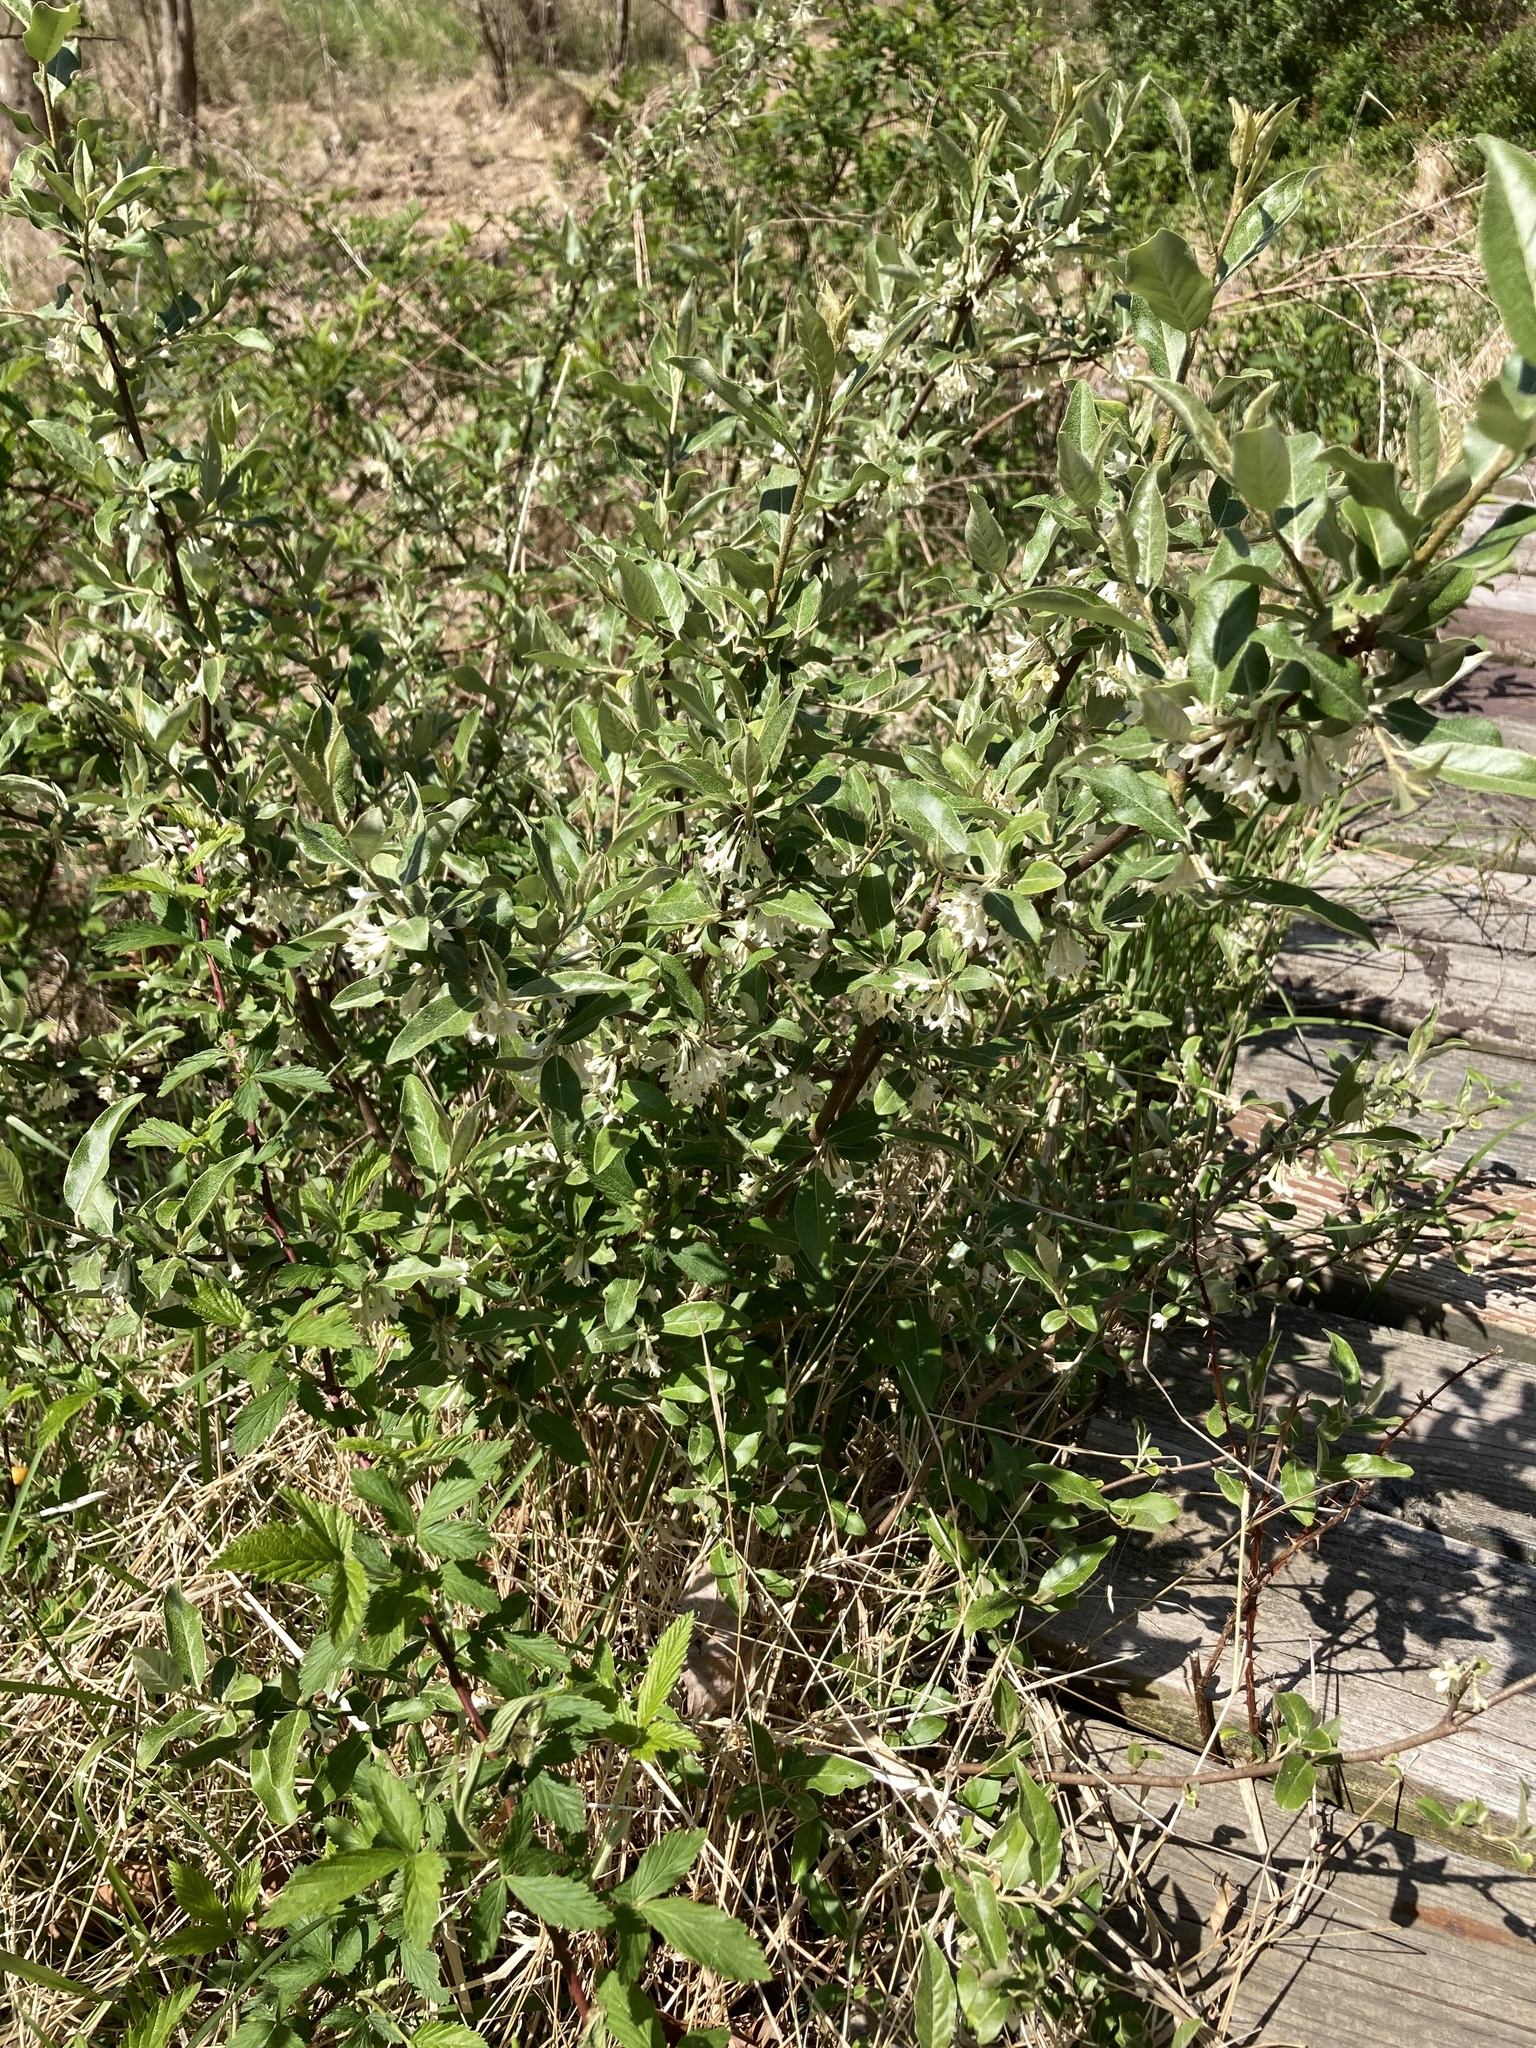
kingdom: Plantae
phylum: Tracheophyta
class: Magnoliopsida
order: Rosales
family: Elaeagnaceae
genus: Elaeagnus
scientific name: Elaeagnus umbellata
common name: Autumn olive
